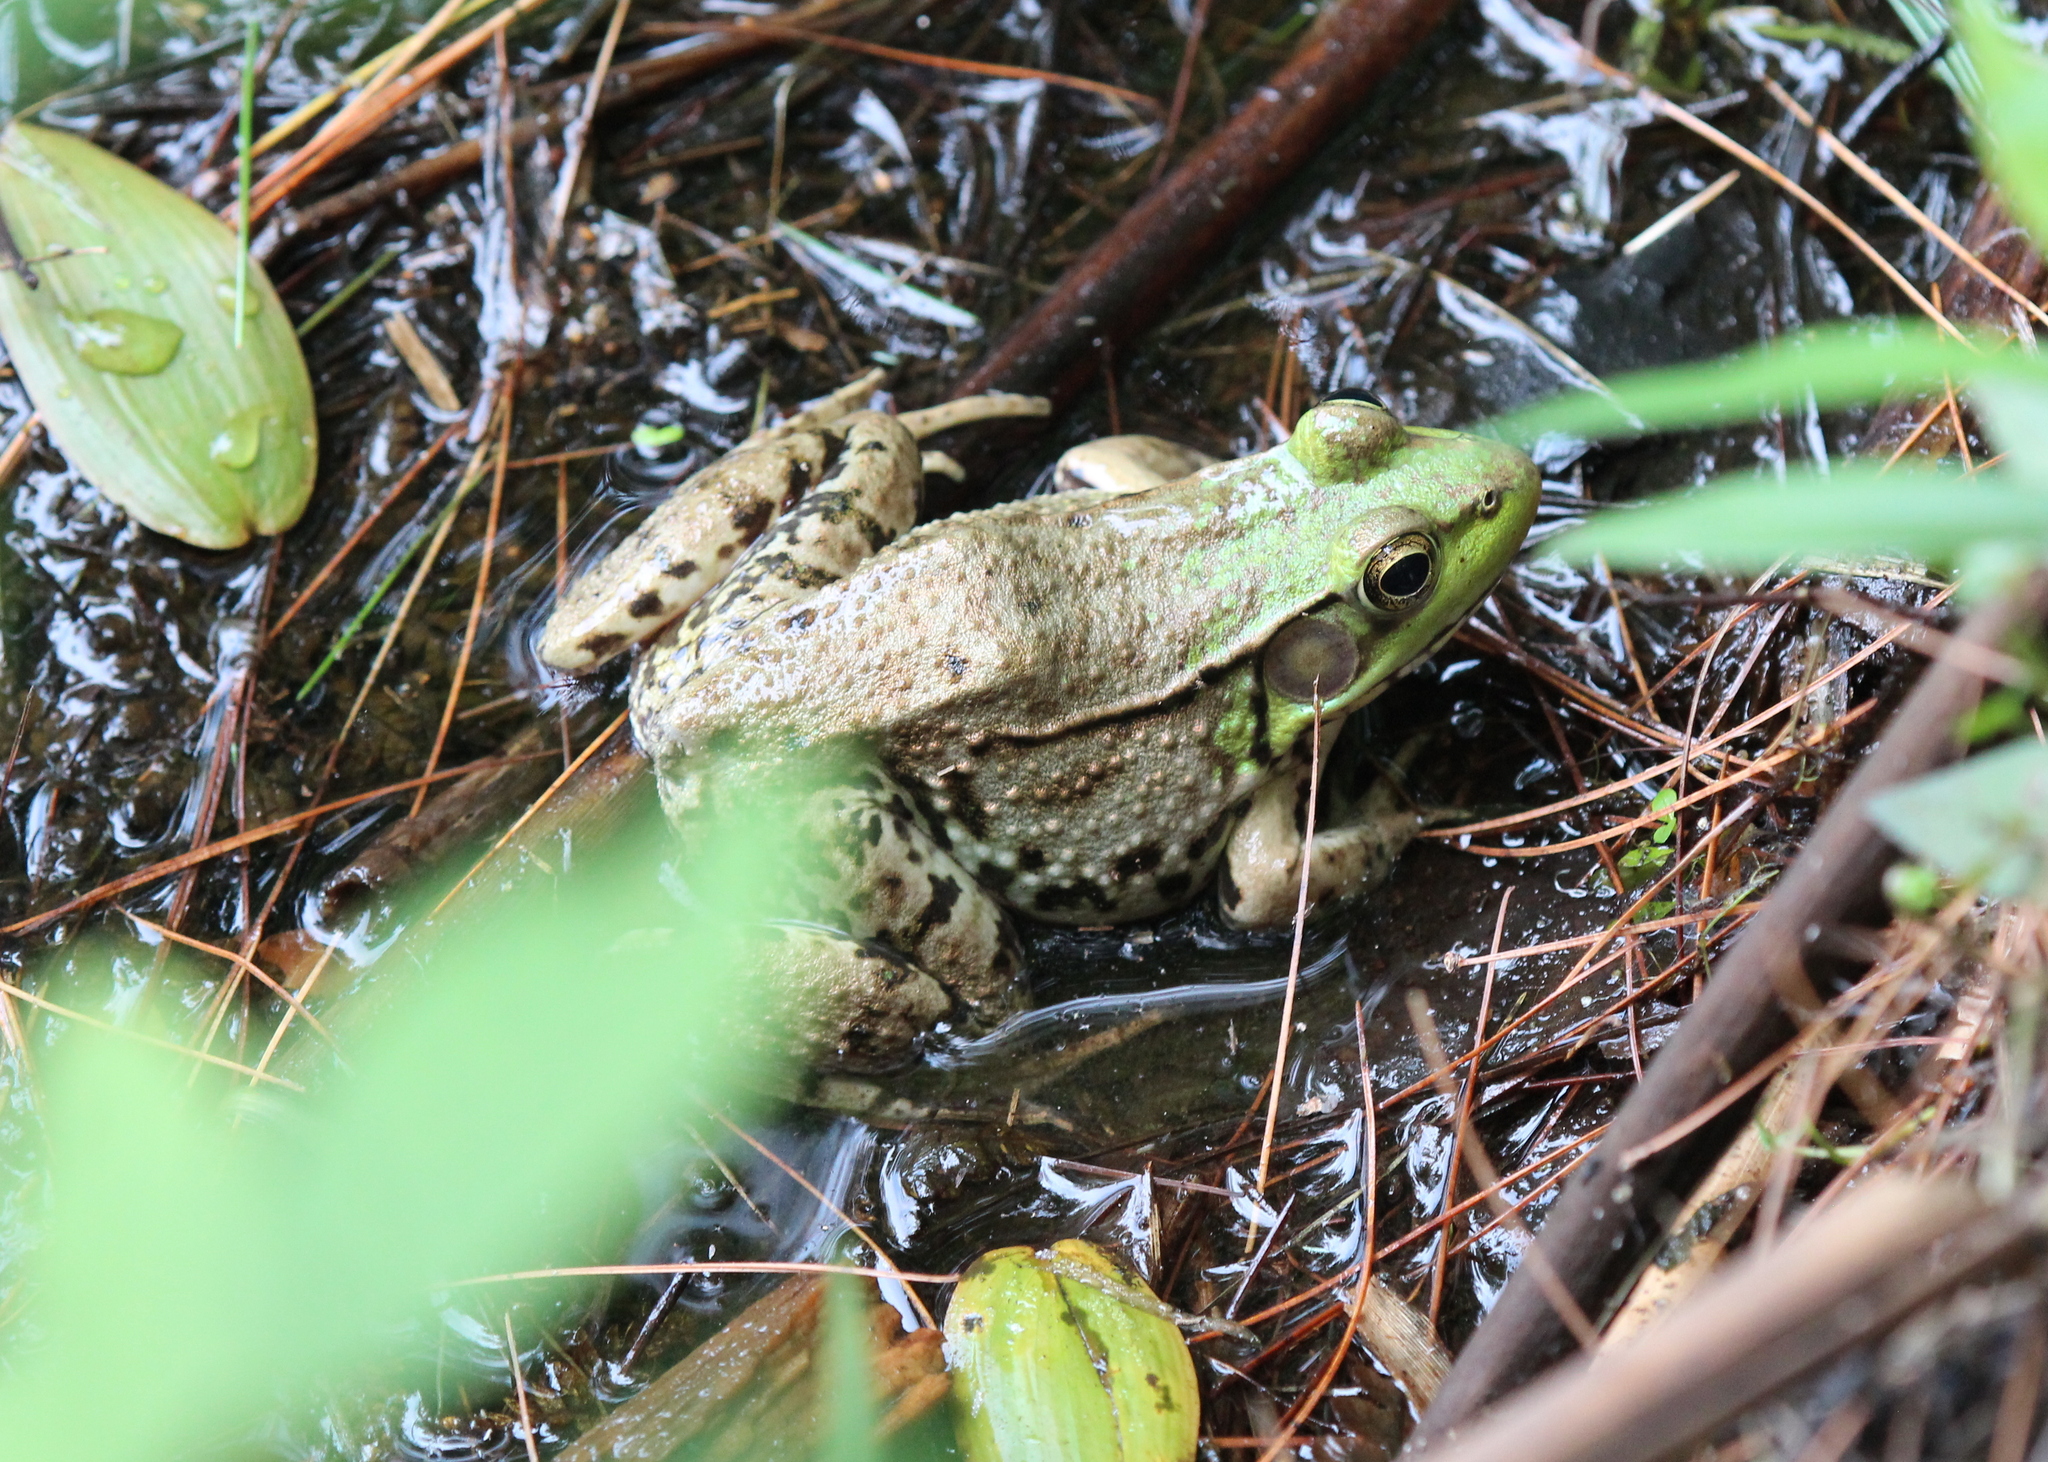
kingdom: Animalia
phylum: Chordata
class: Amphibia
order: Anura
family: Ranidae
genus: Lithobates
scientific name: Lithobates clamitans
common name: Green frog
